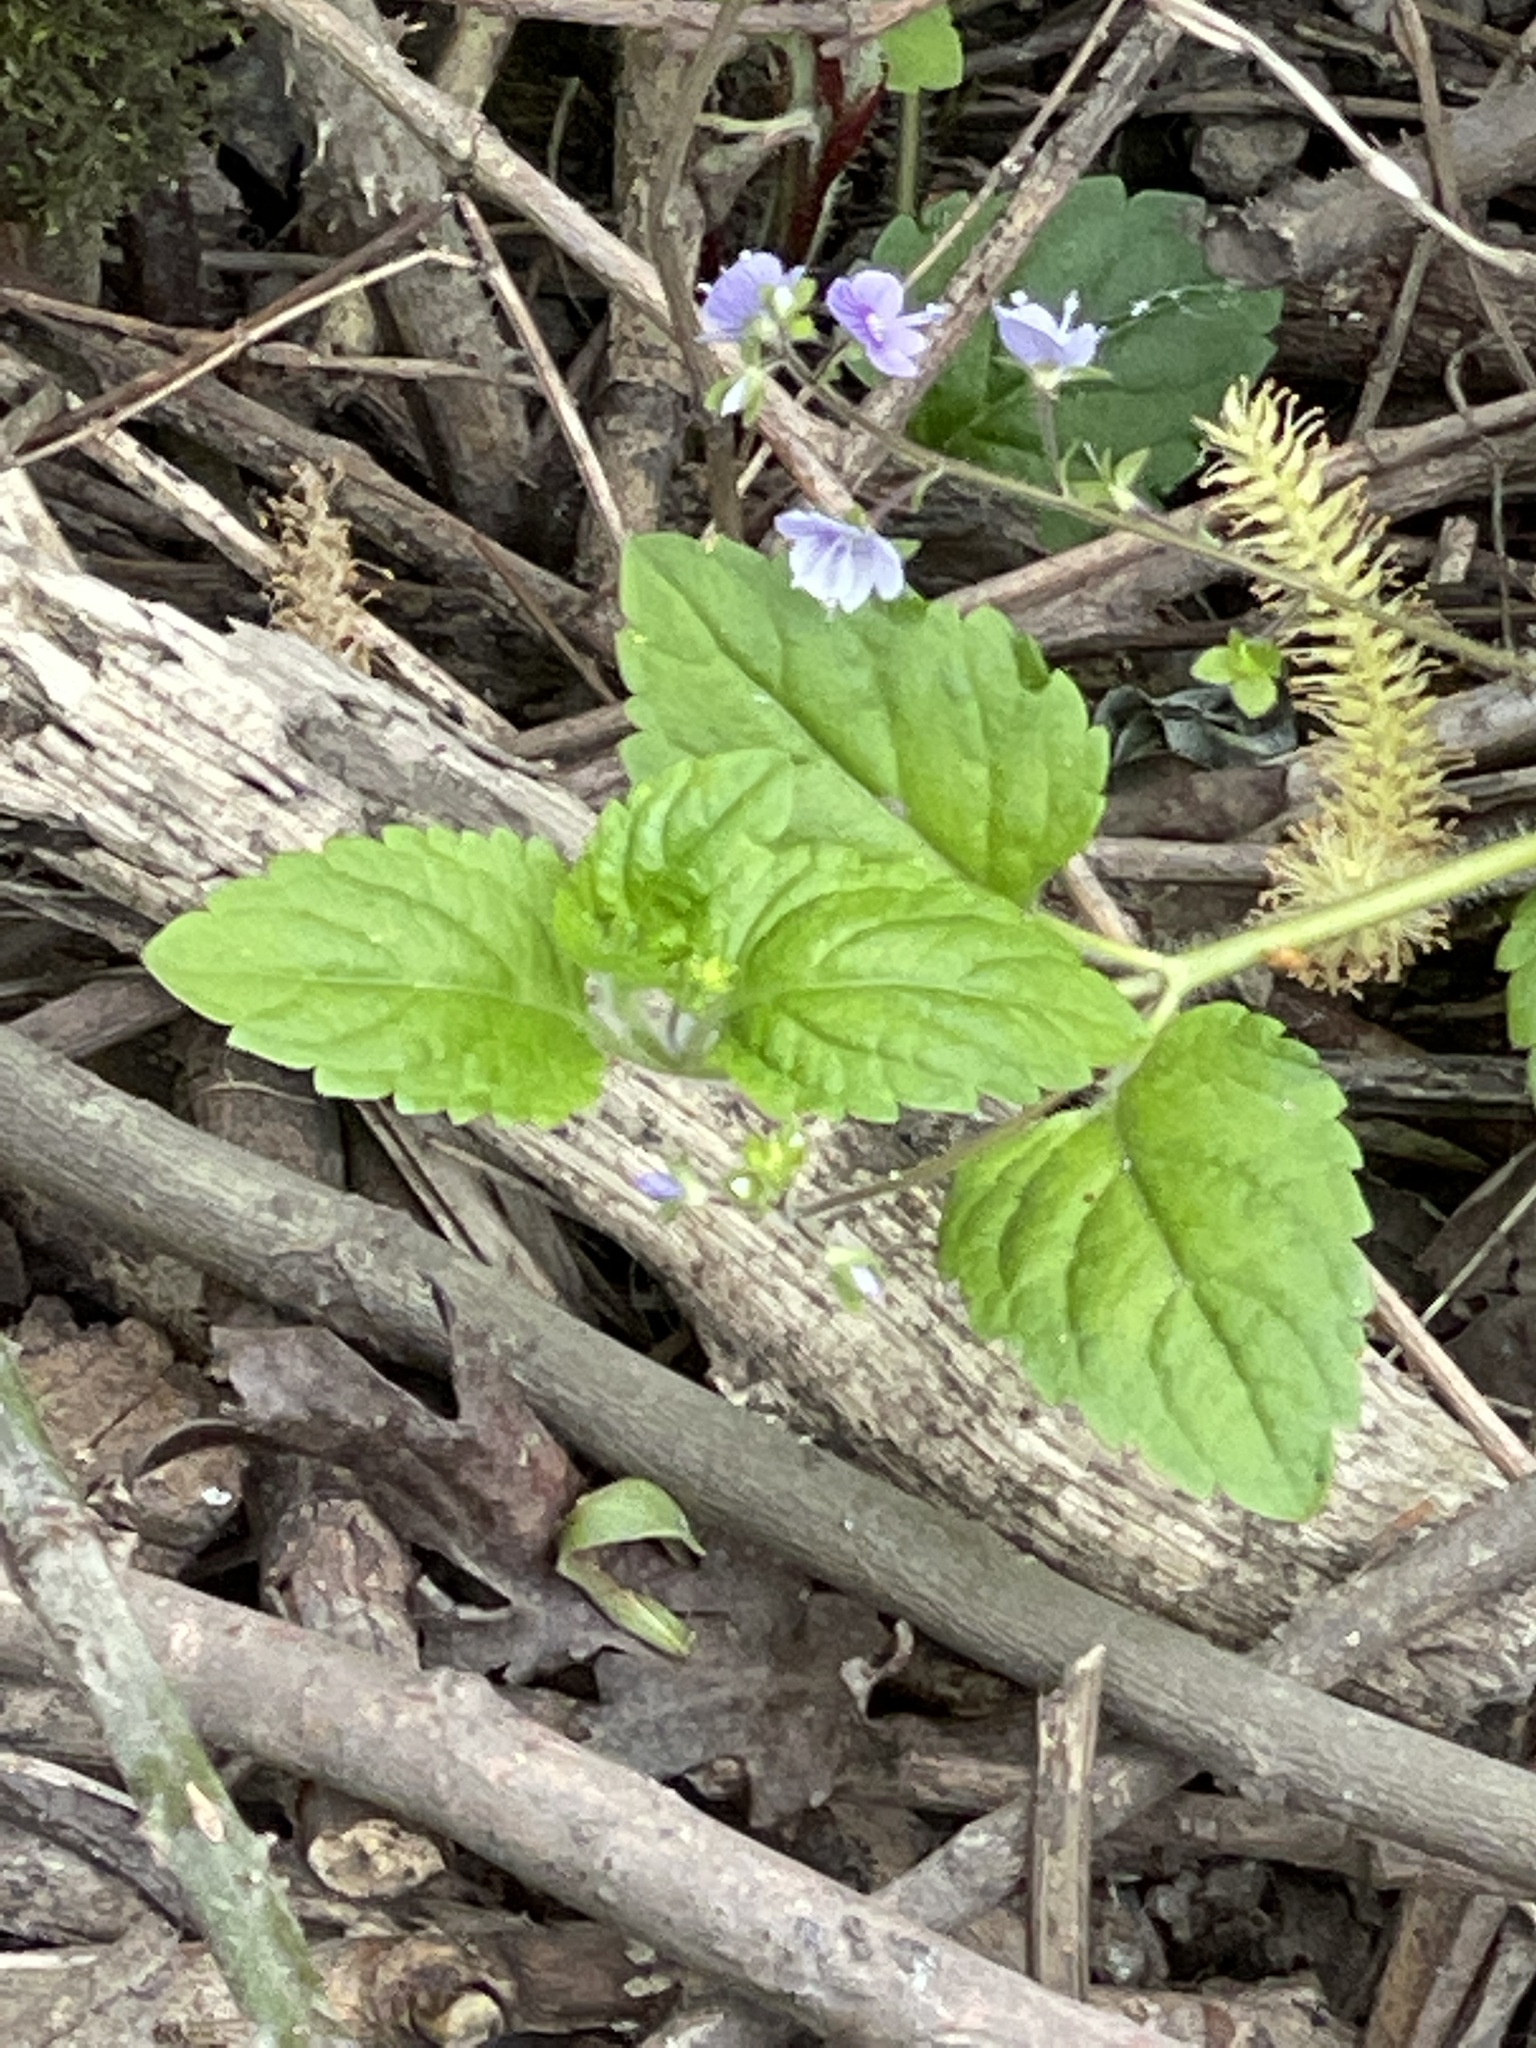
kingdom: Plantae
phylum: Tracheophyta
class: Magnoliopsida
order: Lamiales
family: Plantaginaceae
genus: Veronica
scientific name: Veronica montana
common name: Wood speedwell
